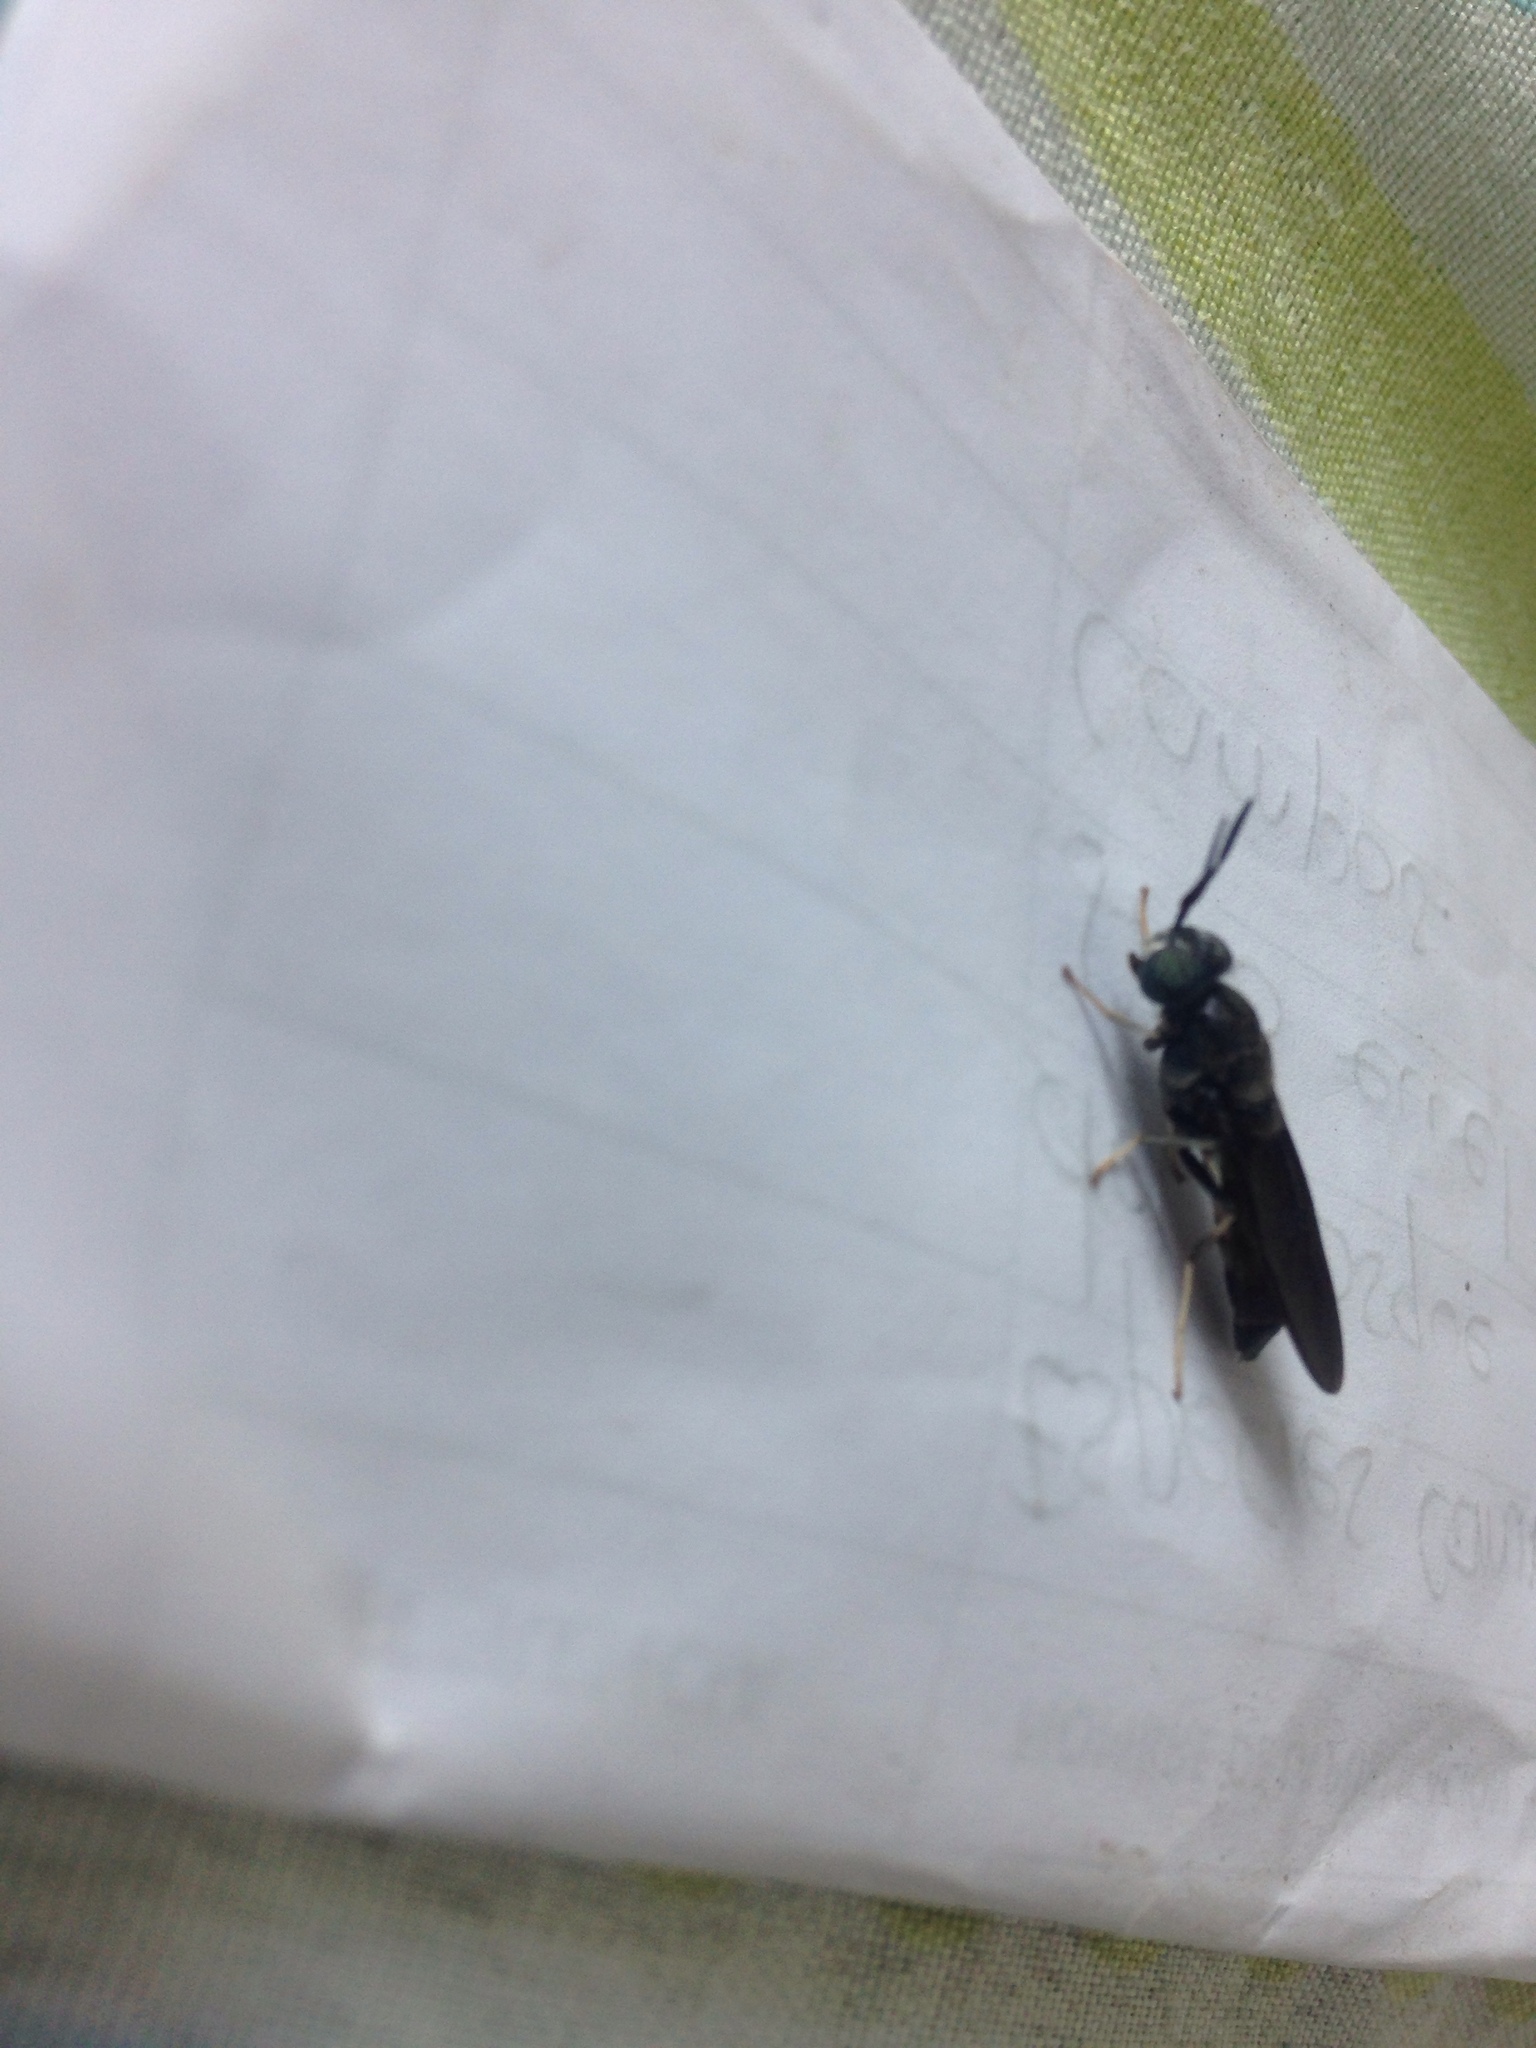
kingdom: Animalia
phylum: Arthropoda
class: Insecta
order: Diptera
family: Stratiomyidae
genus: Hermetia
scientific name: Hermetia illucens
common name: Black soldier fly
